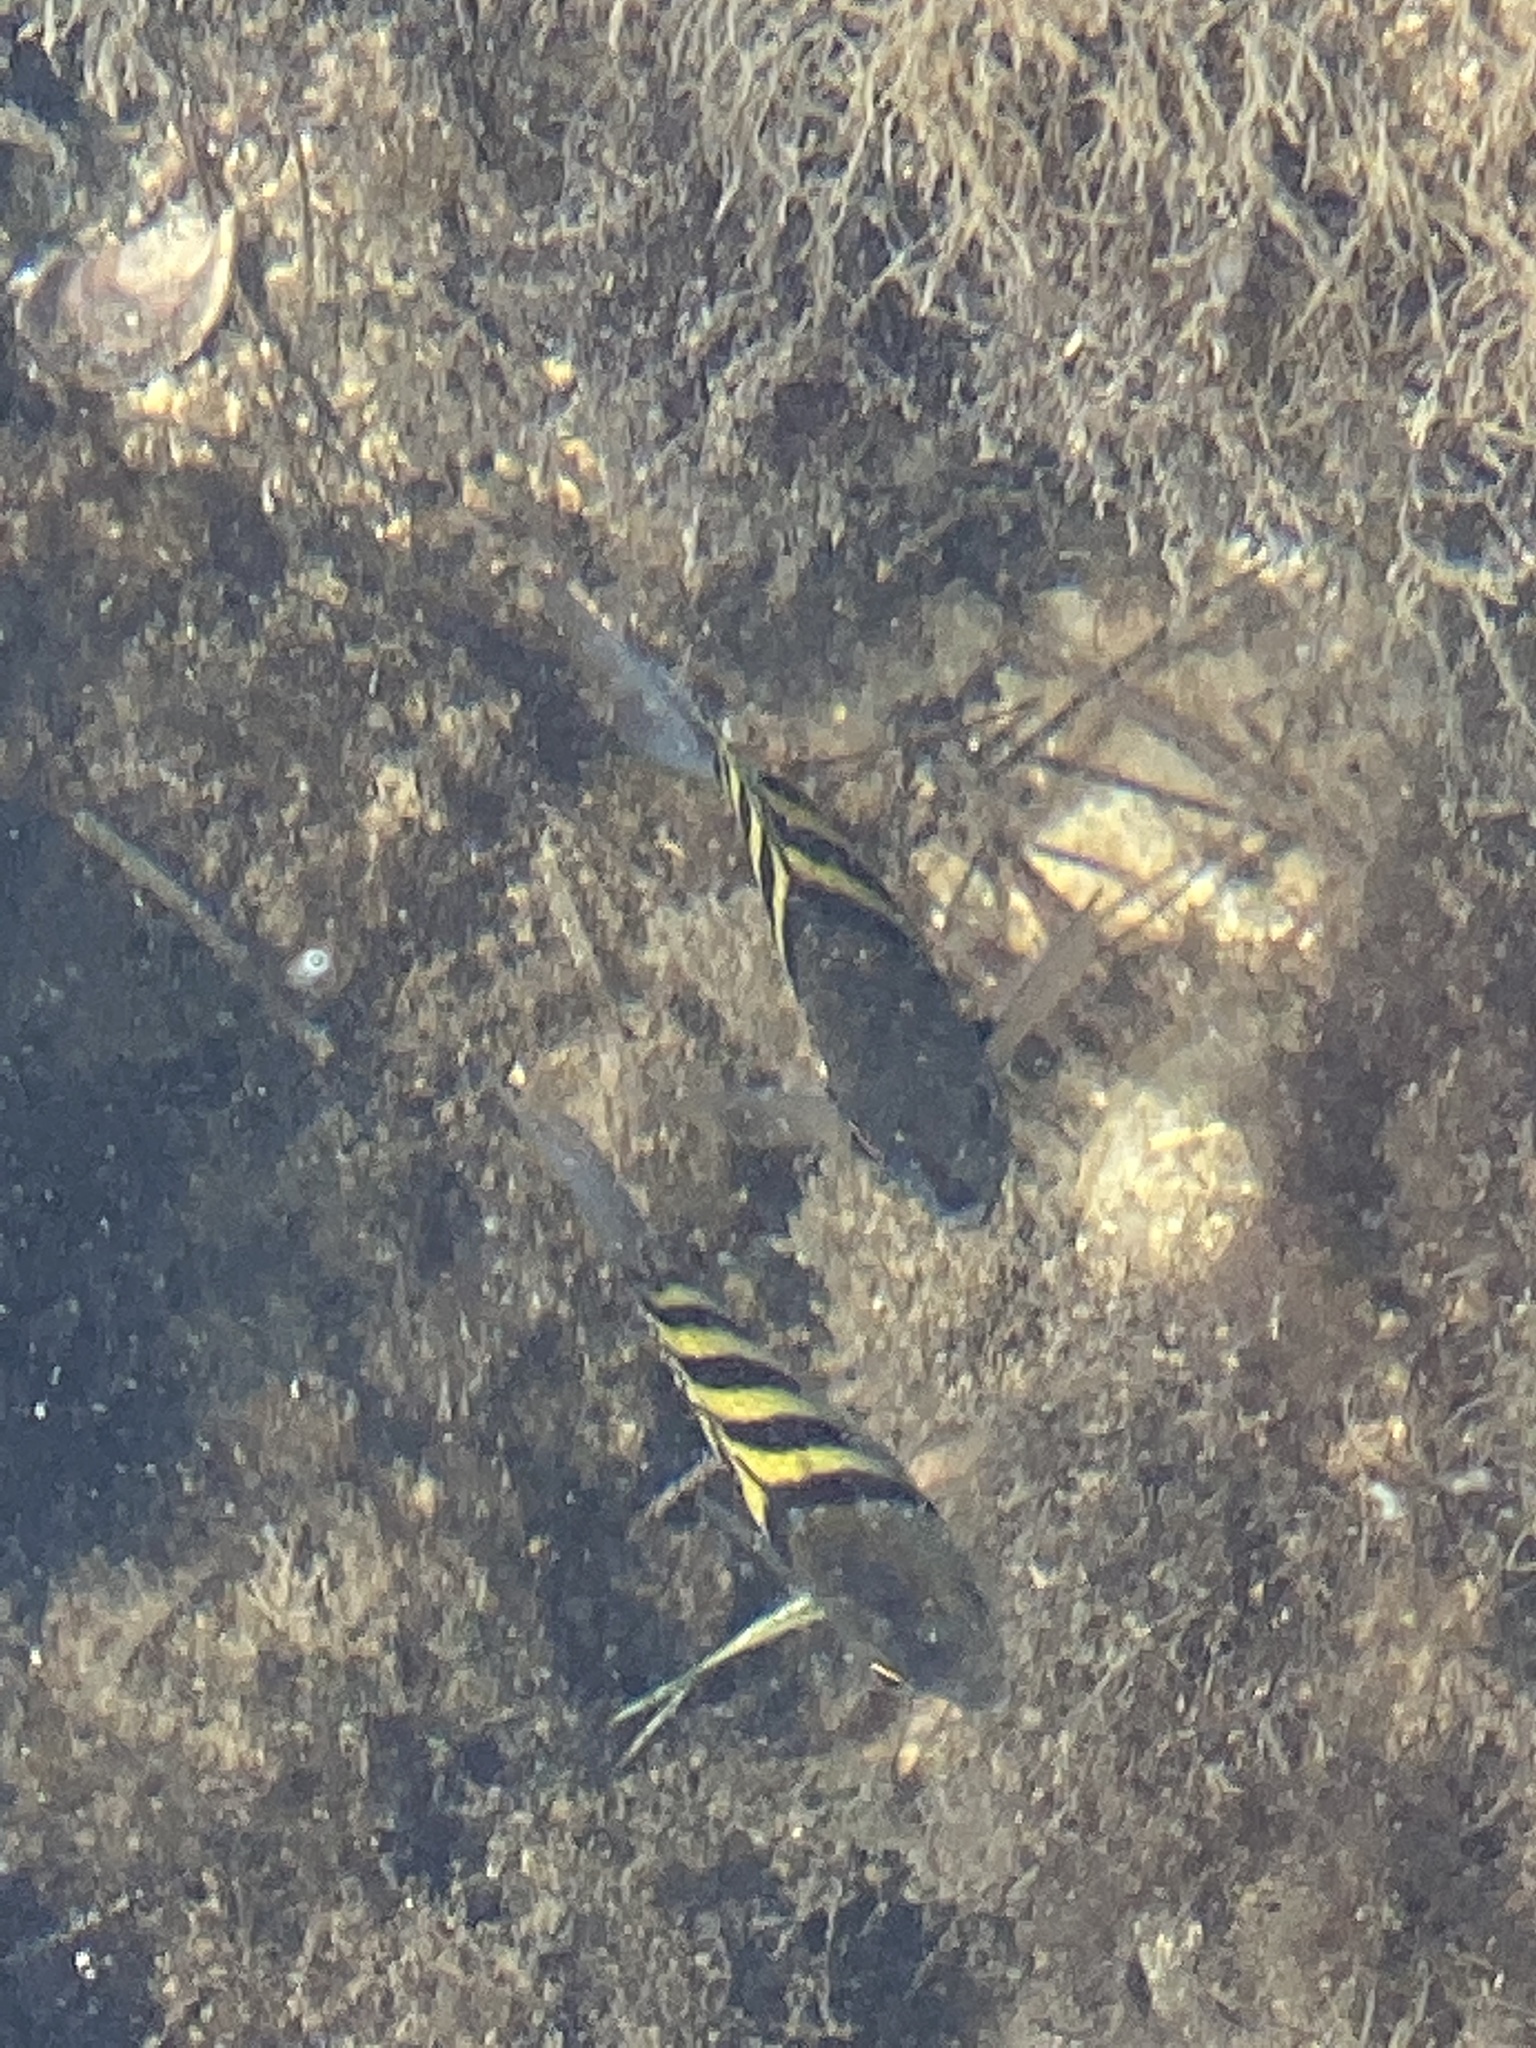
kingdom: Animalia
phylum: Chordata
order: Perciformes
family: Pomacentridae
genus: Abudefduf
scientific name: Abudefduf saxatilis
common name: Sergeant major
